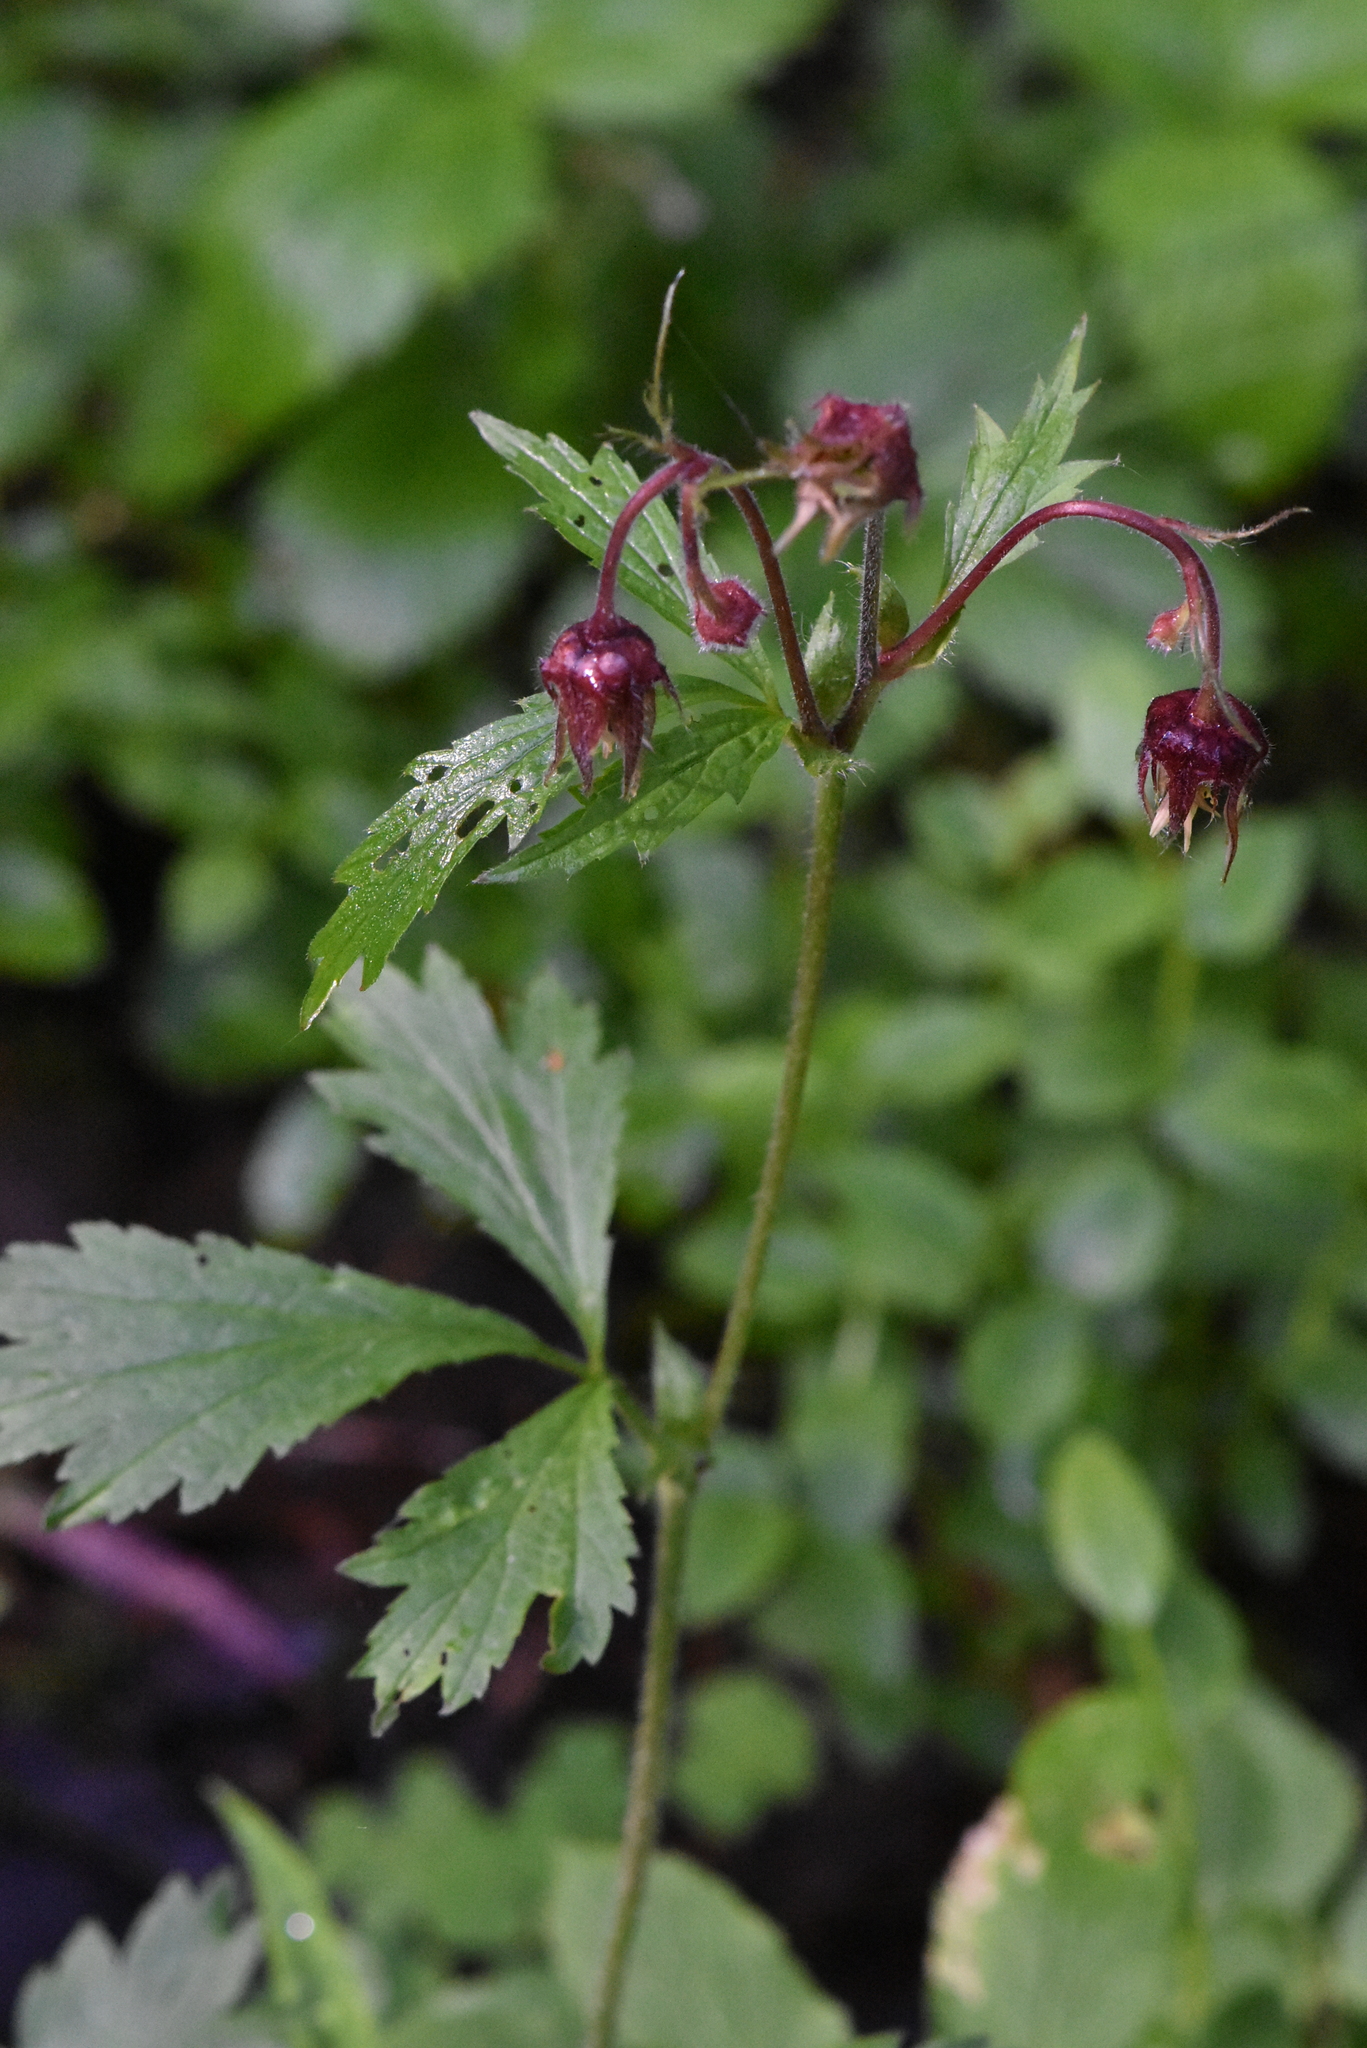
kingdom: Plantae
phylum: Tracheophyta
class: Magnoliopsida
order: Rosales
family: Rosaceae
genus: Geum
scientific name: Geum rivale
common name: Water avens
